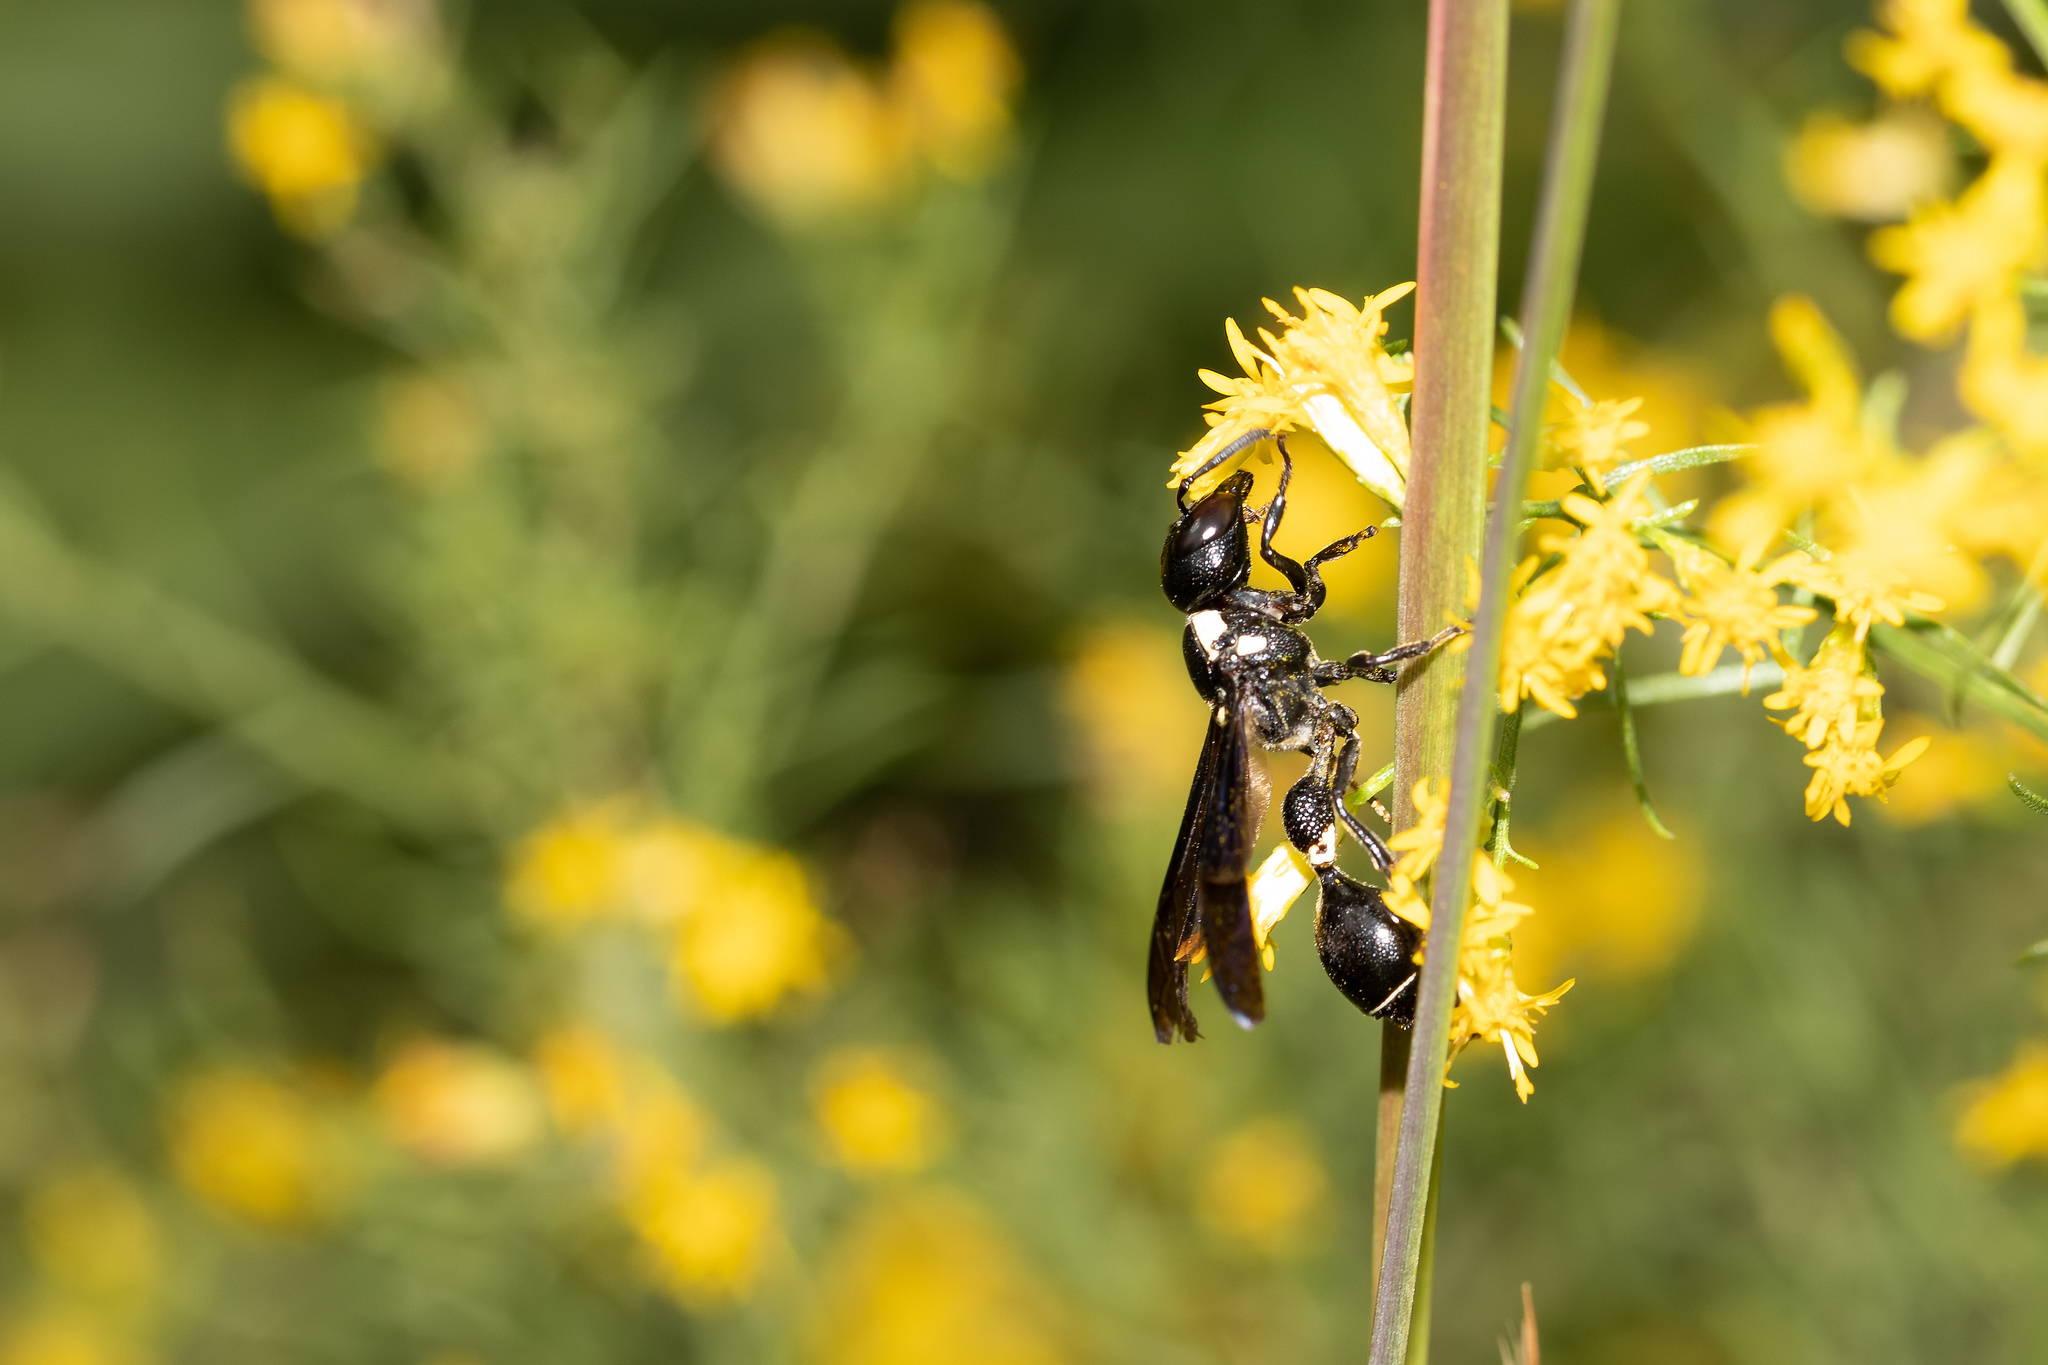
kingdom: Animalia
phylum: Arthropoda
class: Insecta
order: Hymenoptera
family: Eumenidae
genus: Zethus
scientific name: Zethus spinipes
